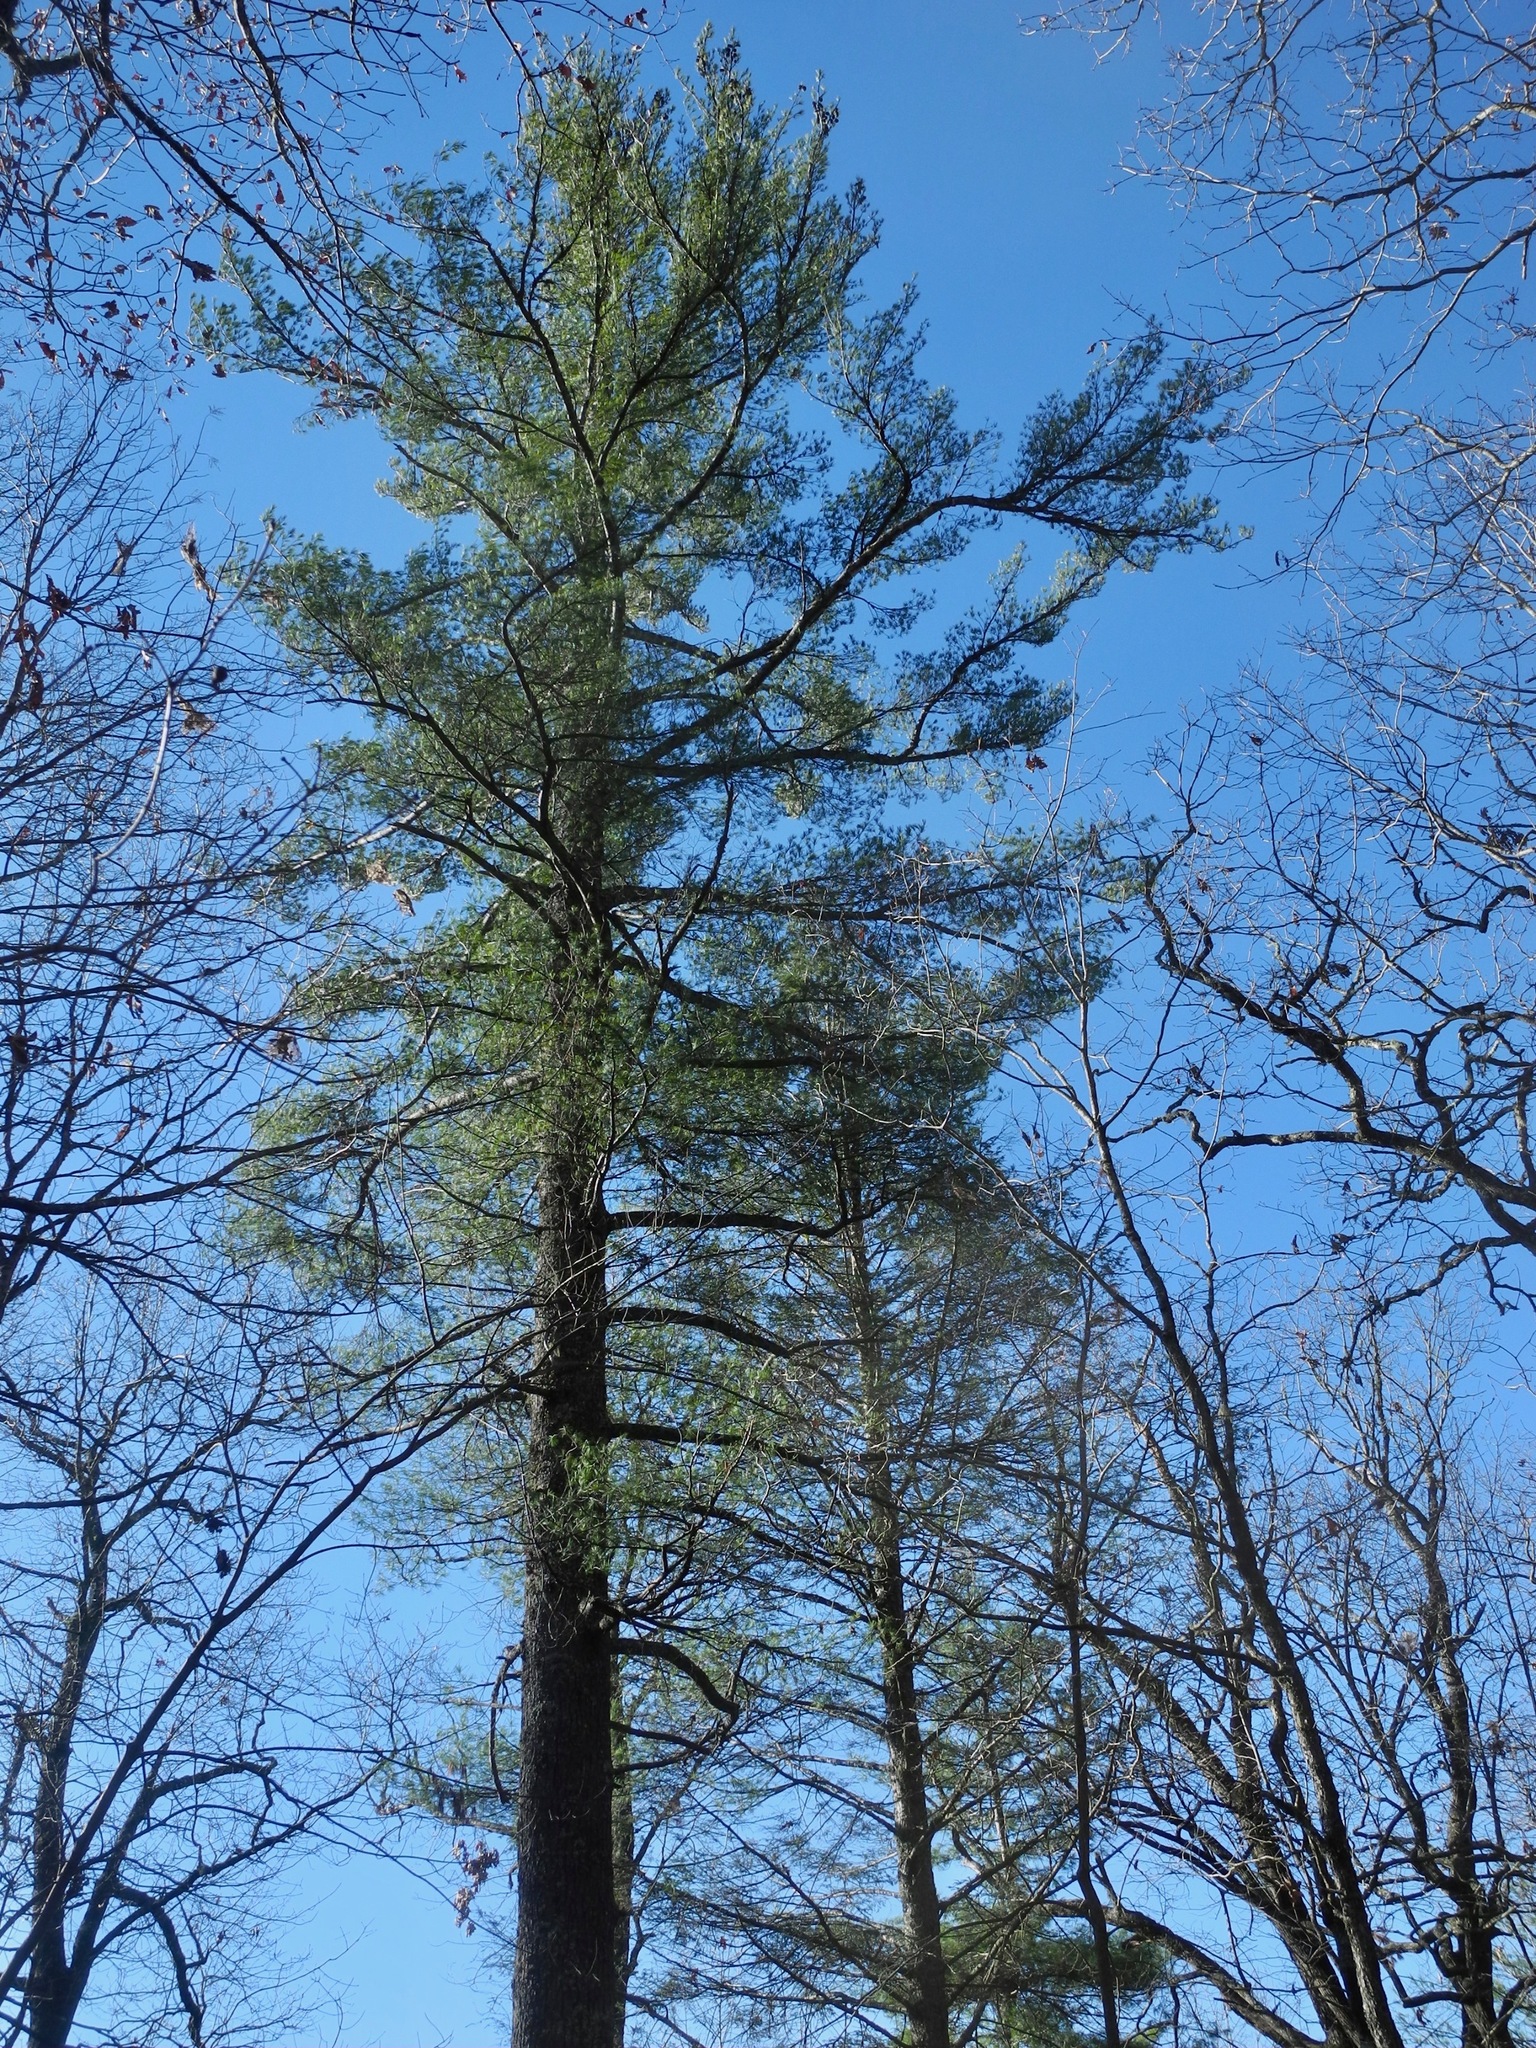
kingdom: Plantae
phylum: Tracheophyta
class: Pinopsida
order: Pinales
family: Pinaceae
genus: Pinus
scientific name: Pinus strobus
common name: Weymouth pine
